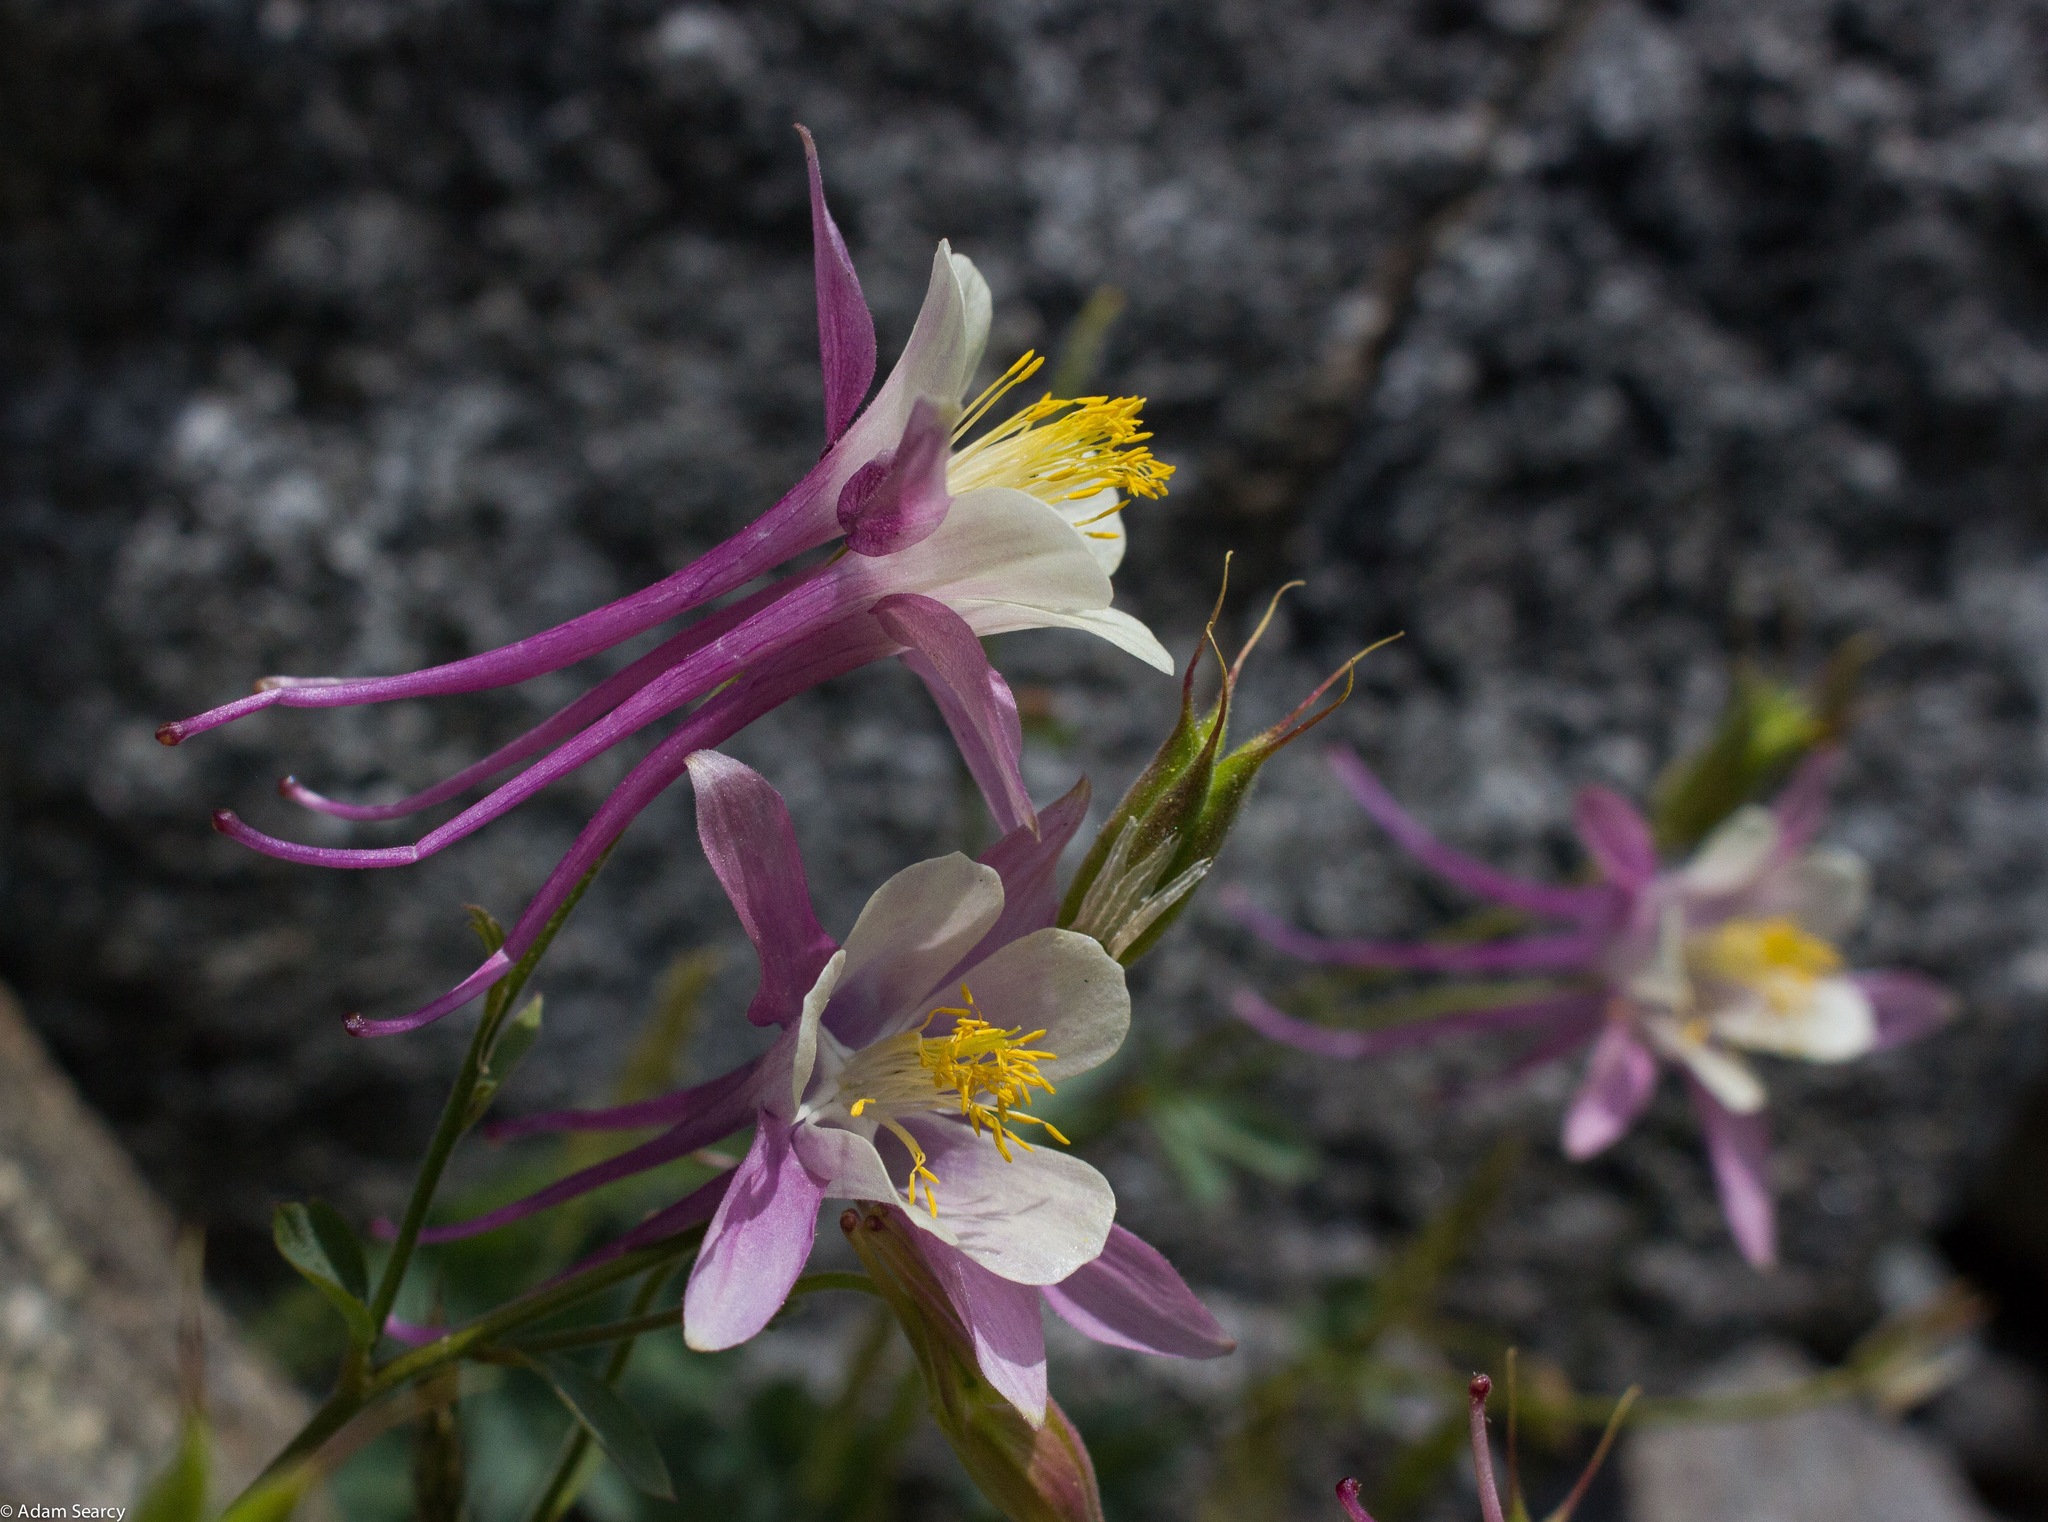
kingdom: Plantae
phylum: Tracheophyta
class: Magnoliopsida
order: Ranunculales
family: Ranunculaceae
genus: Aquilegia
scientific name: Aquilegia pubescens
